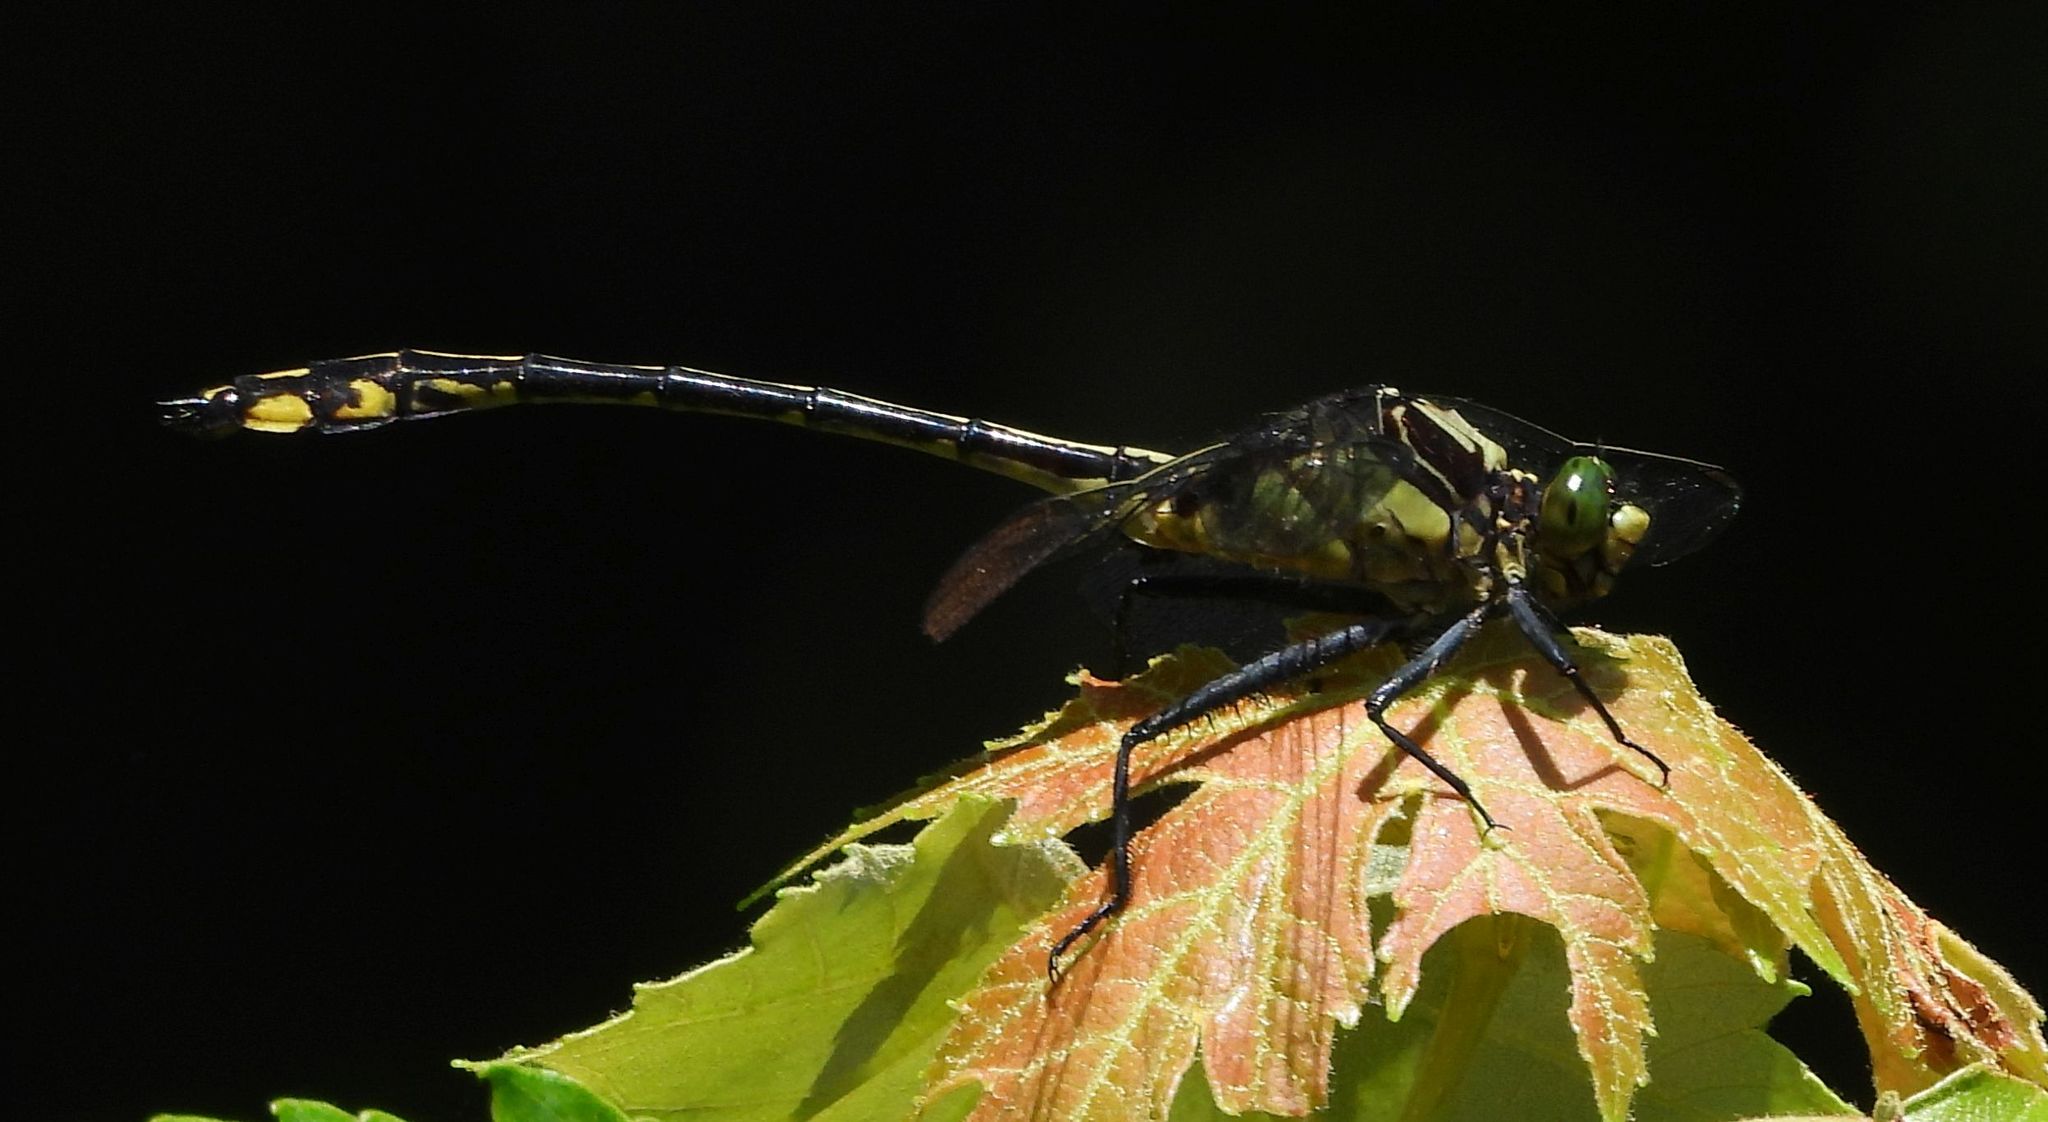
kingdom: Animalia
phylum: Arthropoda
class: Insecta
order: Odonata
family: Gomphidae
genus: Dromogomphus
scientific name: Dromogomphus spinosus
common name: Black-shouldered spinyleg
